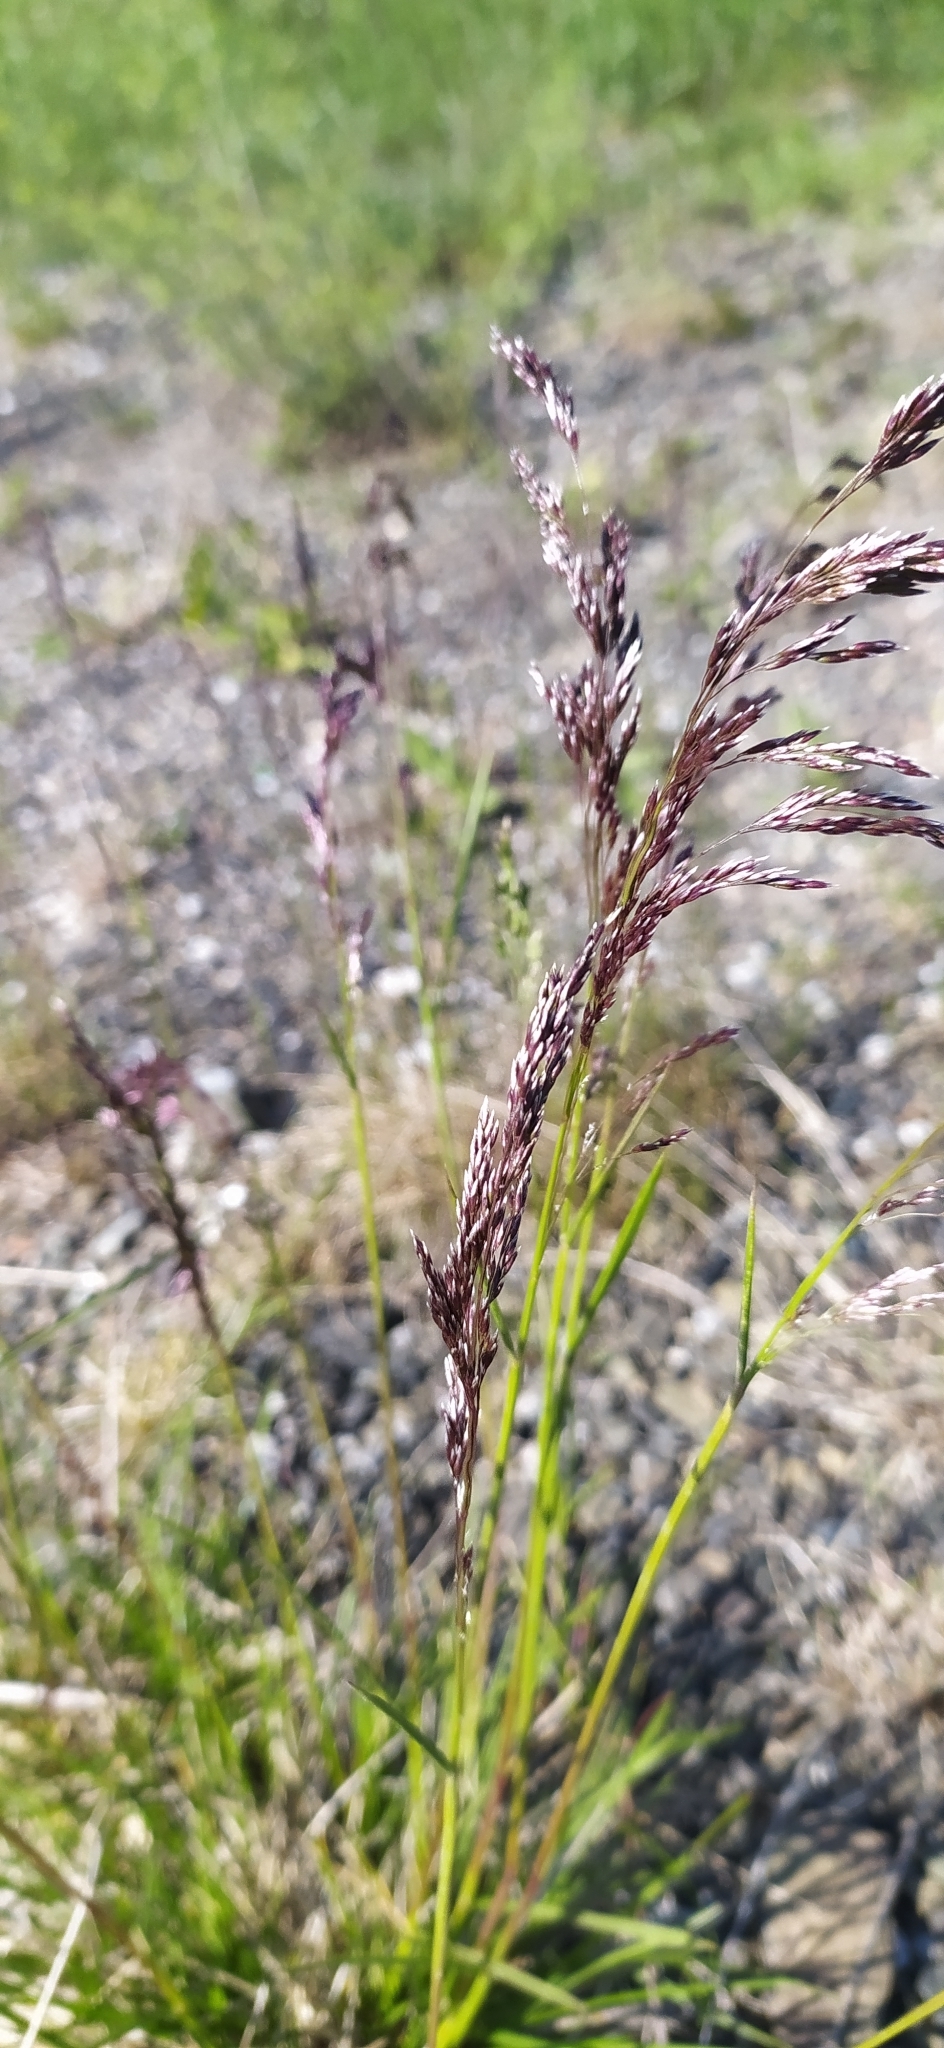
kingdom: Plantae
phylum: Tracheophyta
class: Liliopsida
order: Poales
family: Poaceae
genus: Deschampsia
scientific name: Deschampsia cespitosa
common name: Tufted hair-grass
